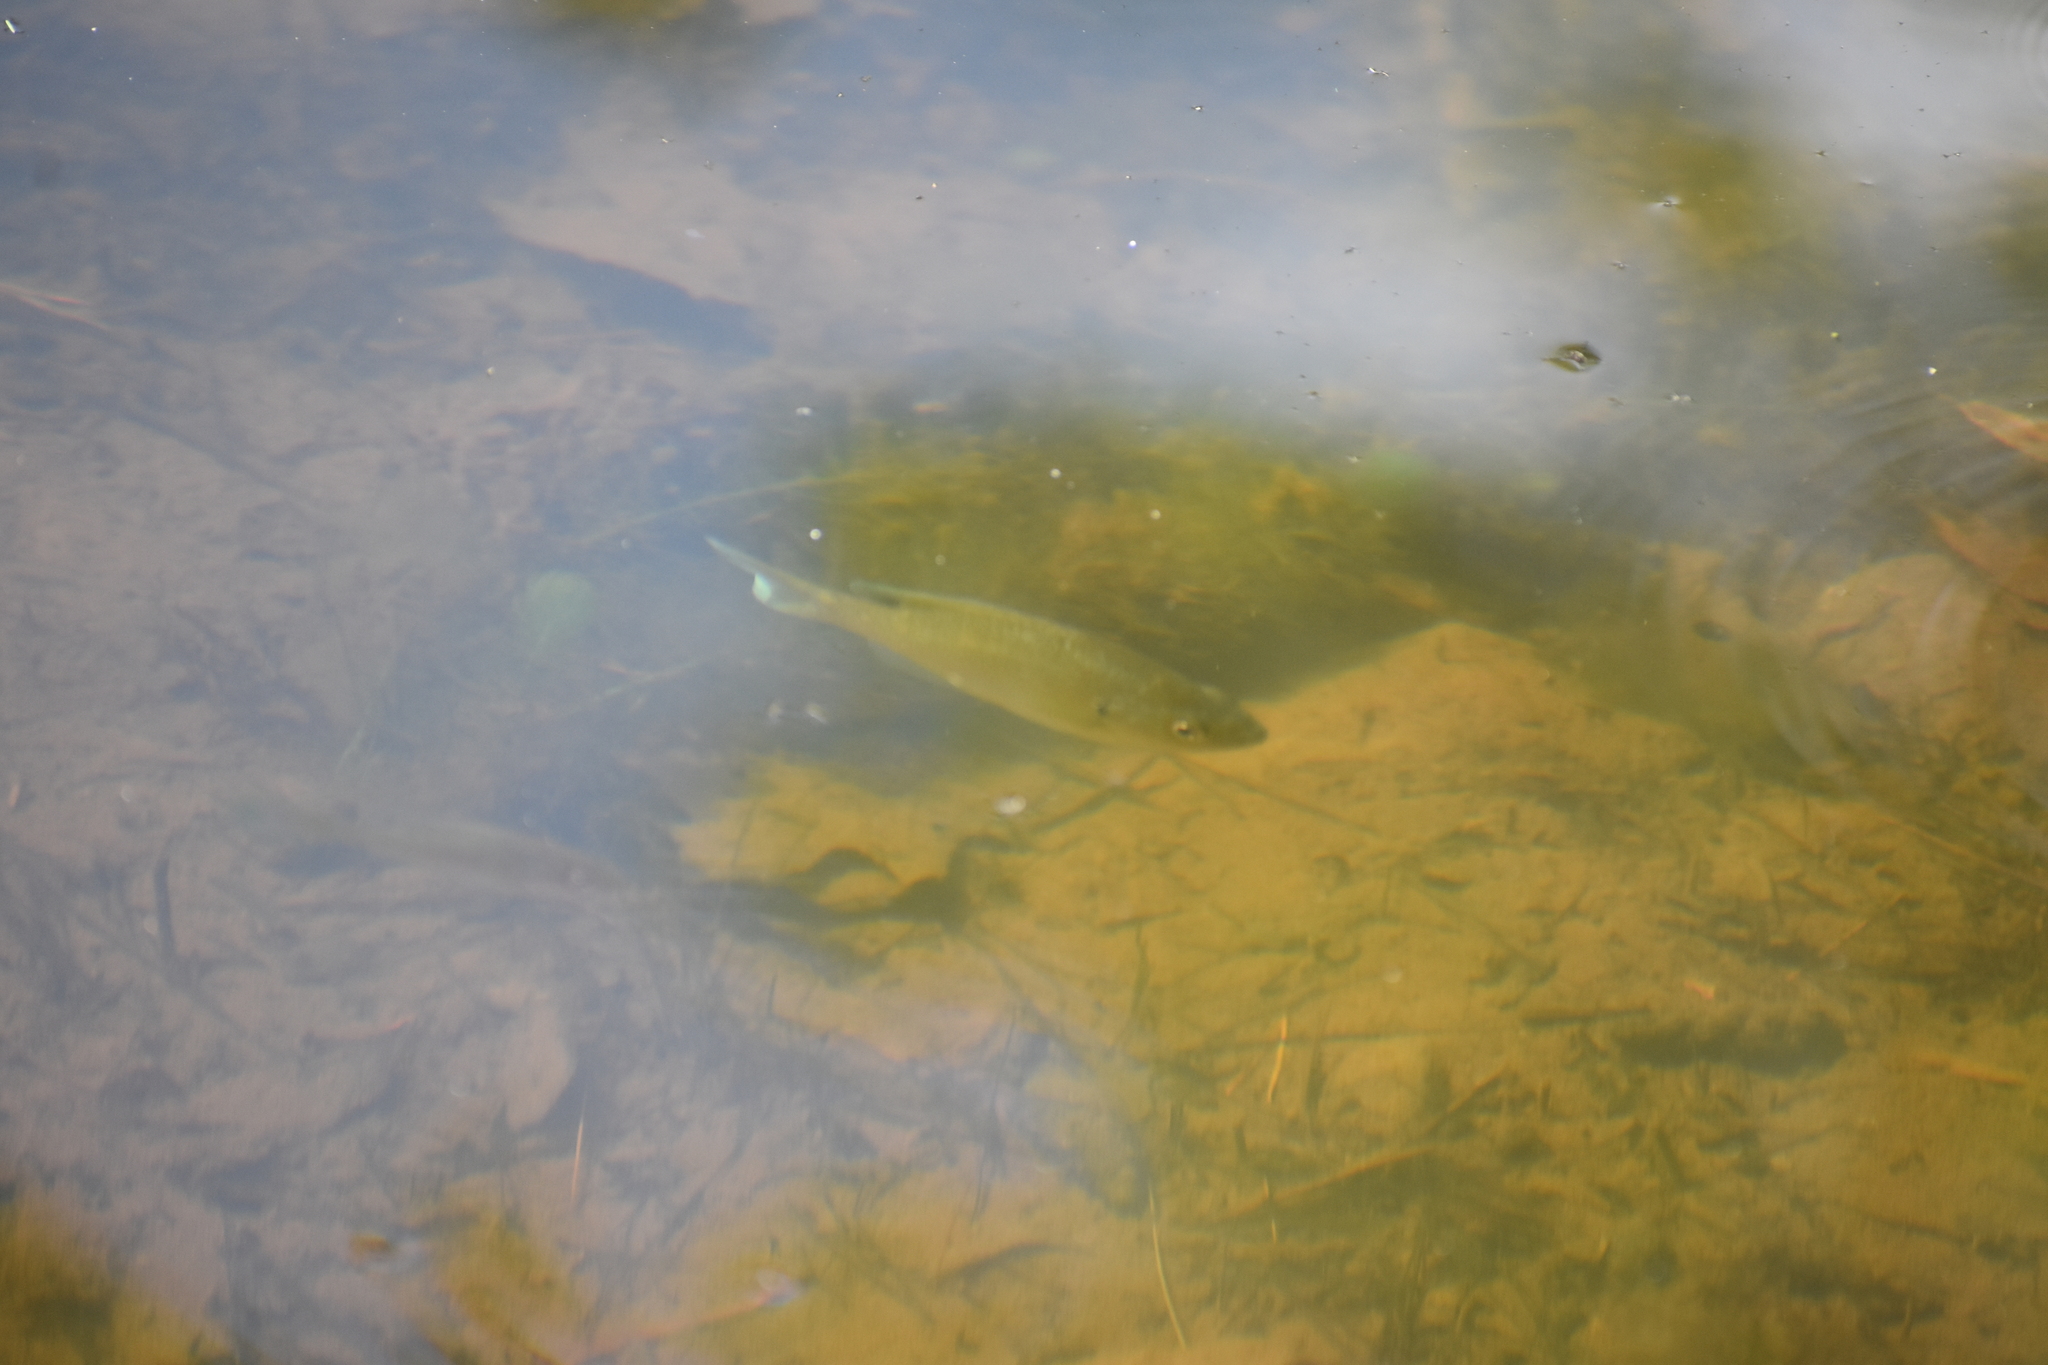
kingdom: Animalia
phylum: Chordata
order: Perciformes
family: Centrarchidae
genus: Lepomis
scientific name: Lepomis macrochirus
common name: Bluegill
